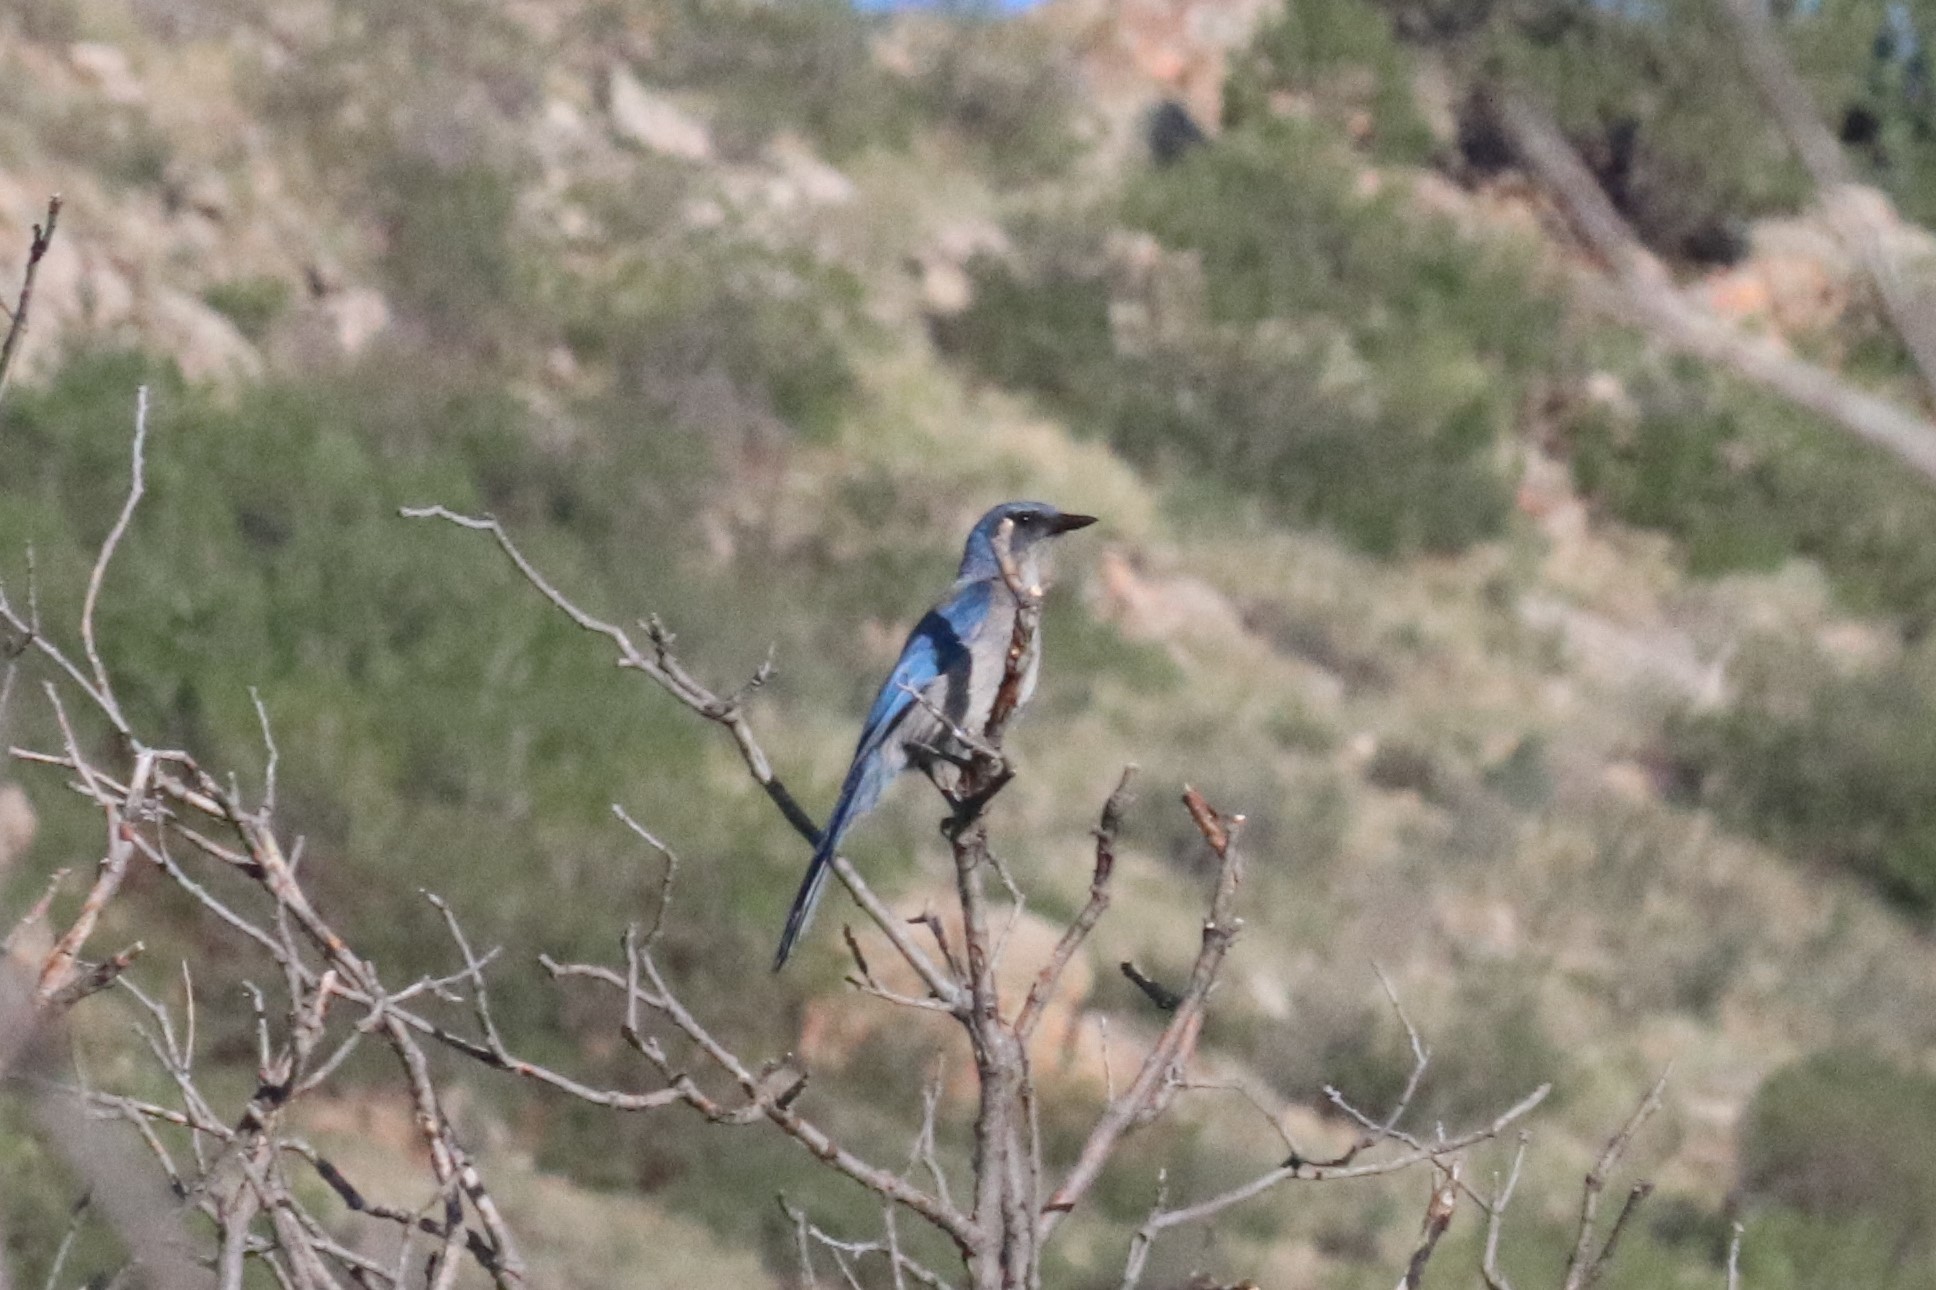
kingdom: Animalia
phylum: Chordata
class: Aves
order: Passeriformes
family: Corvidae
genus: Aphelocoma
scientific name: Aphelocoma woodhouseii
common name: Woodhouse's scrub-jay
